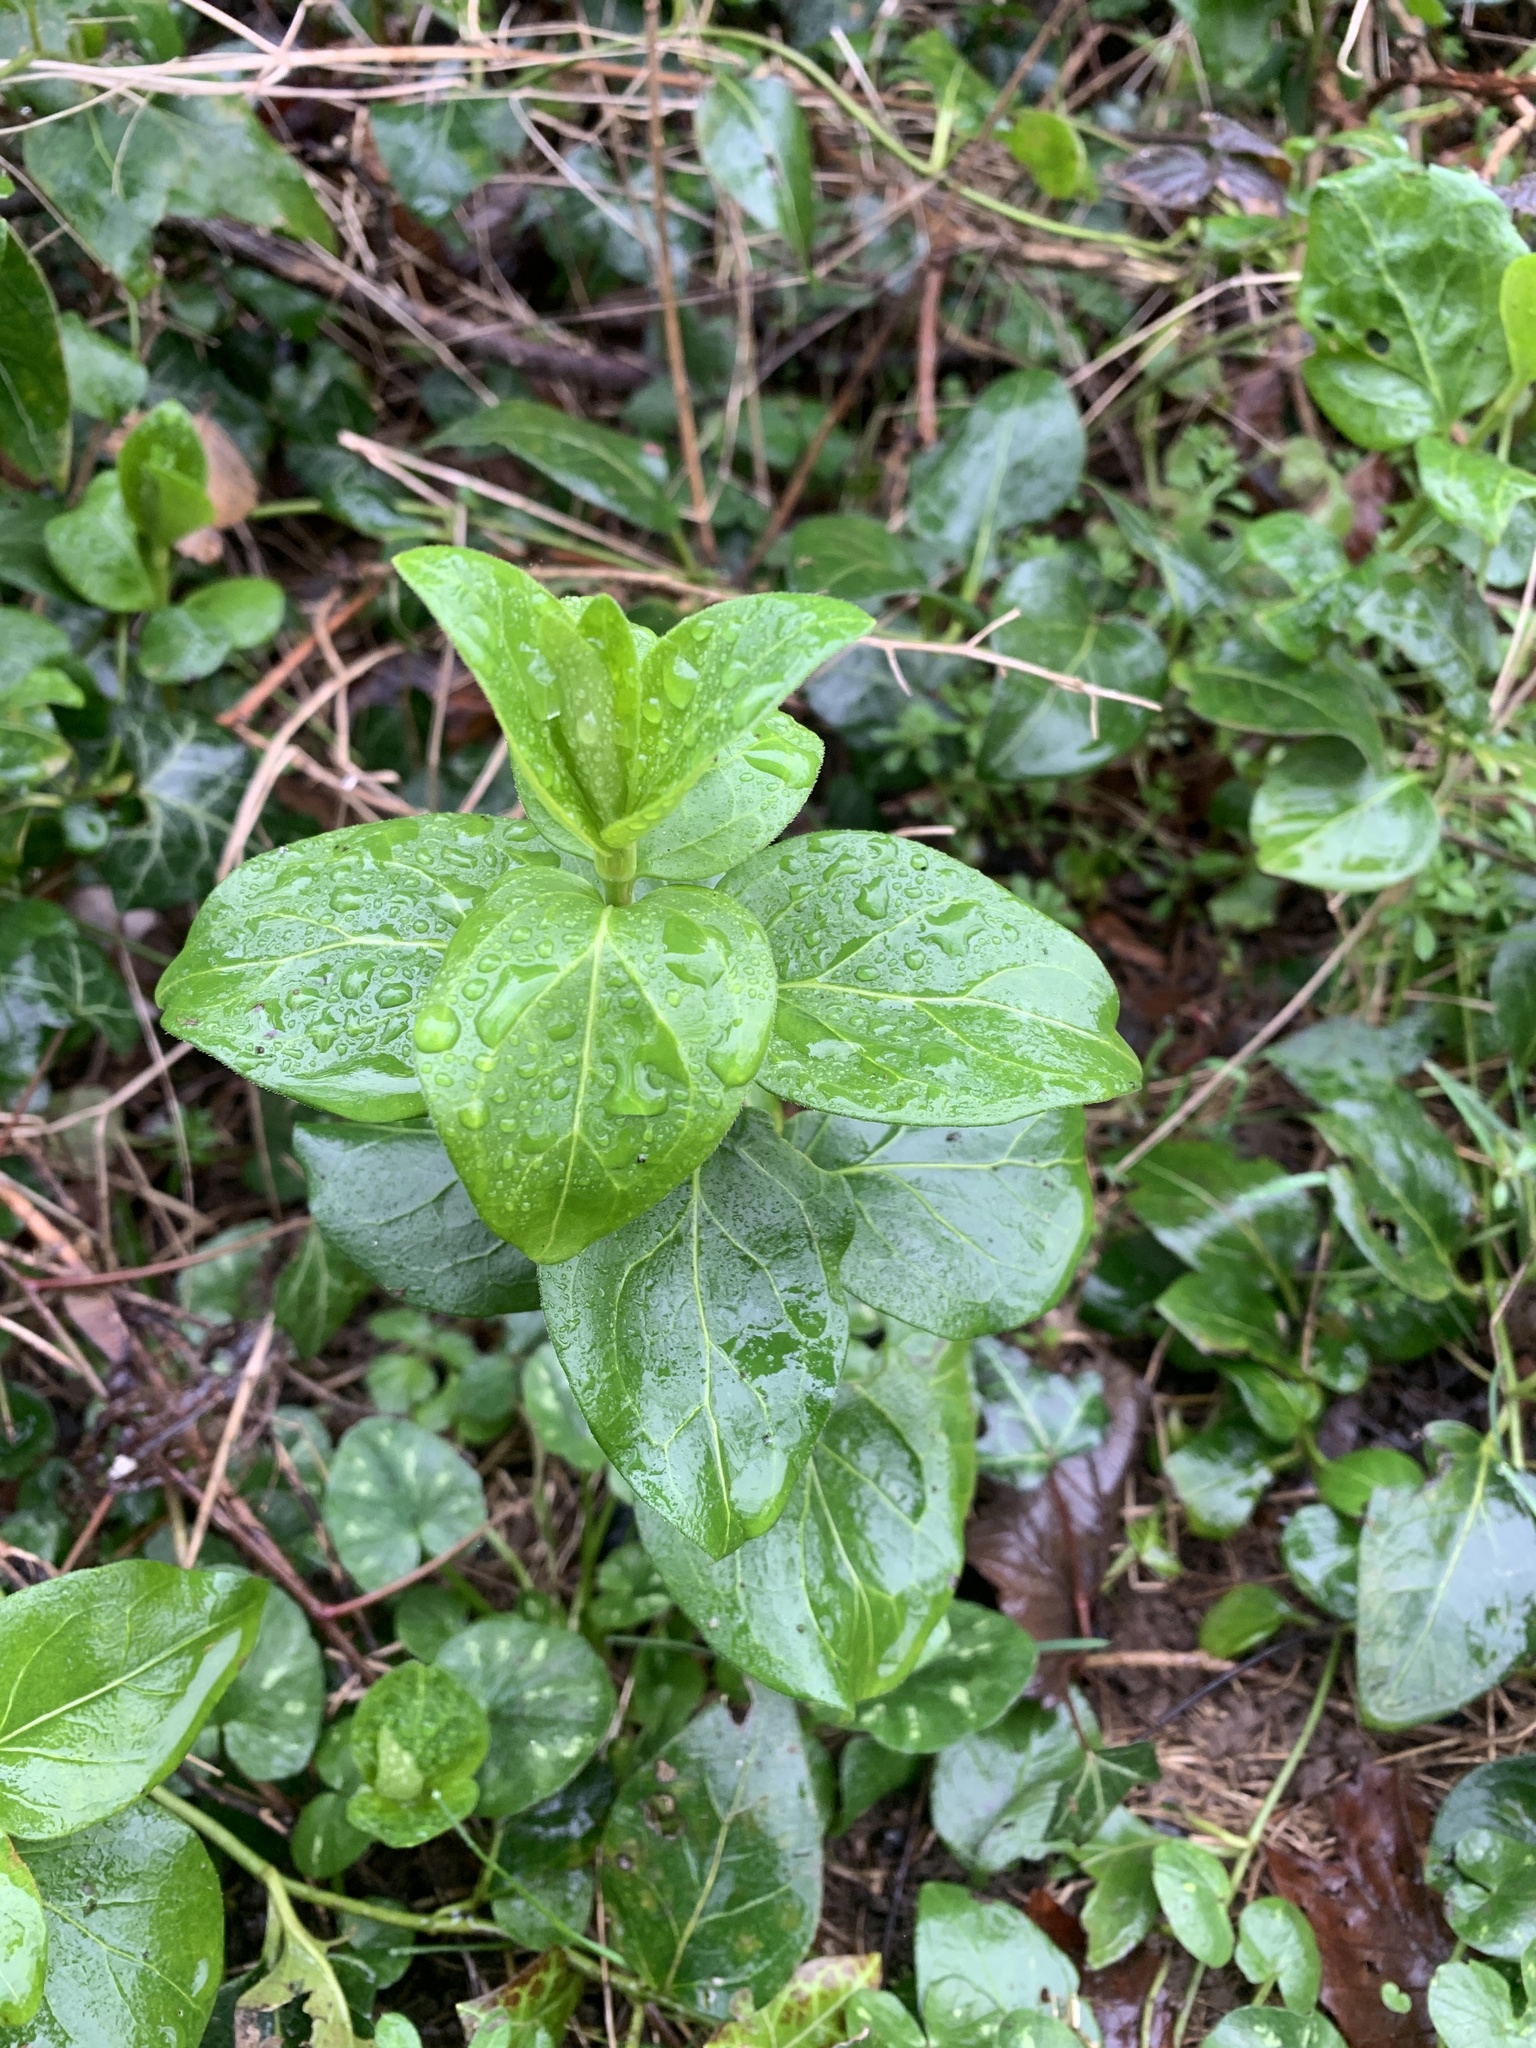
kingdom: Plantae
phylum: Tracheophyta
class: Magnoliopsida
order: Gentianales
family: Apocynaceae
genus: Vinca
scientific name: Vinca major
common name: Greater periwinkle
